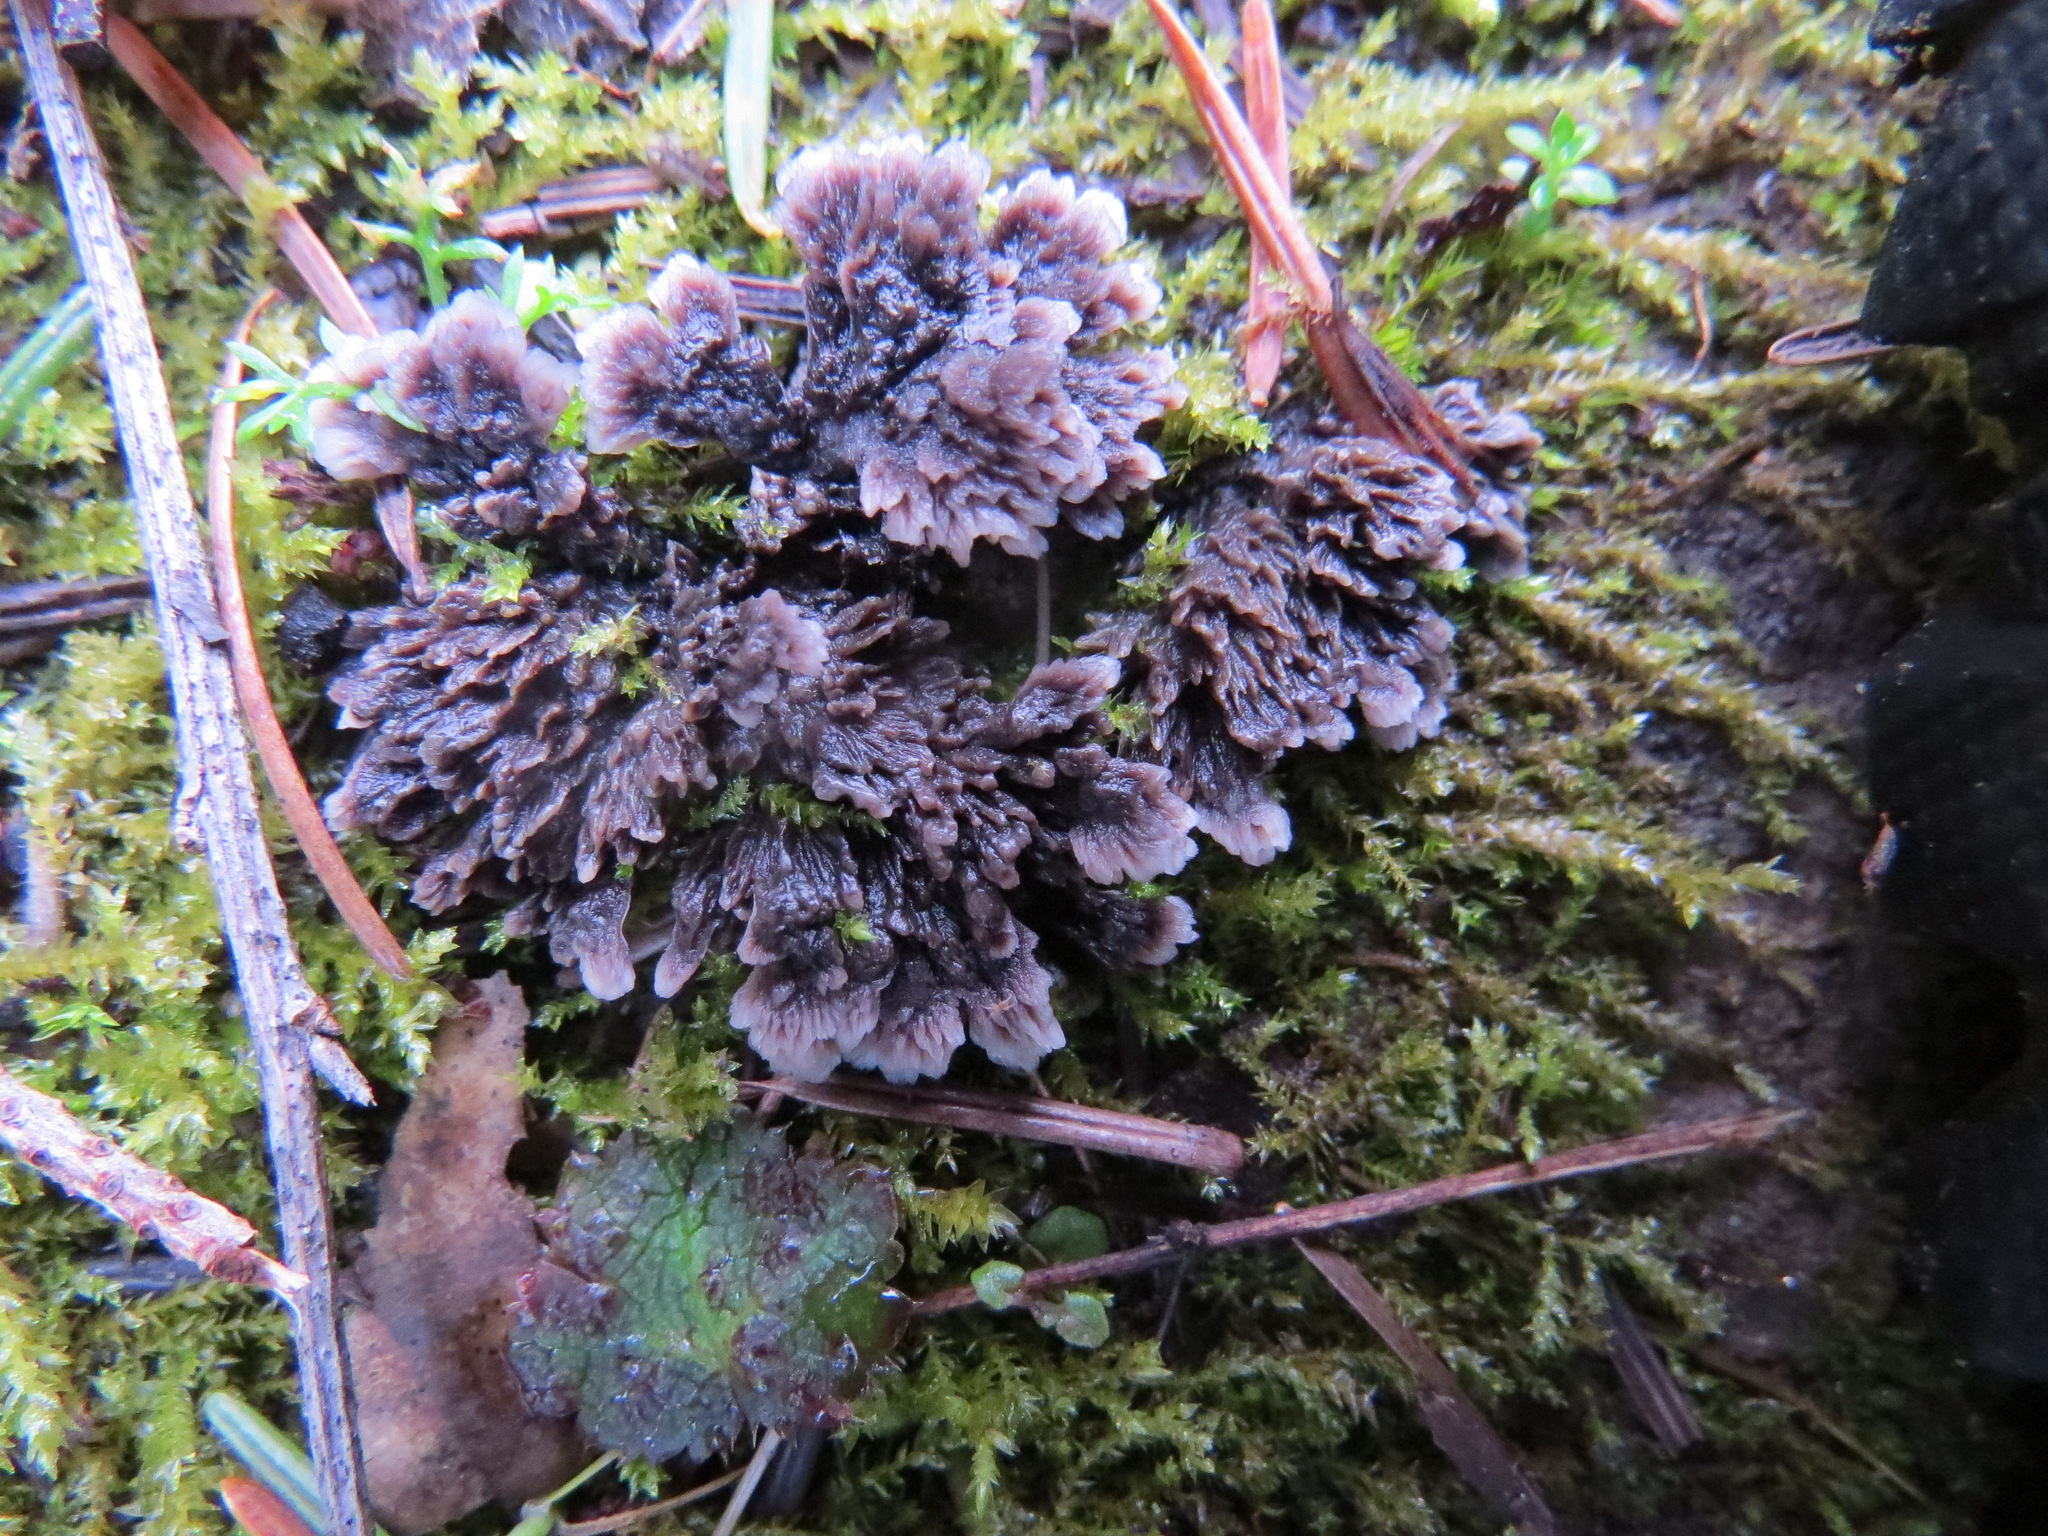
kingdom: Fungi
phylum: Basidiomycota
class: Agaricomycetes
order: Thelephorales
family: Thelephoraceae
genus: Thelephora
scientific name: Thelephora terrestris
